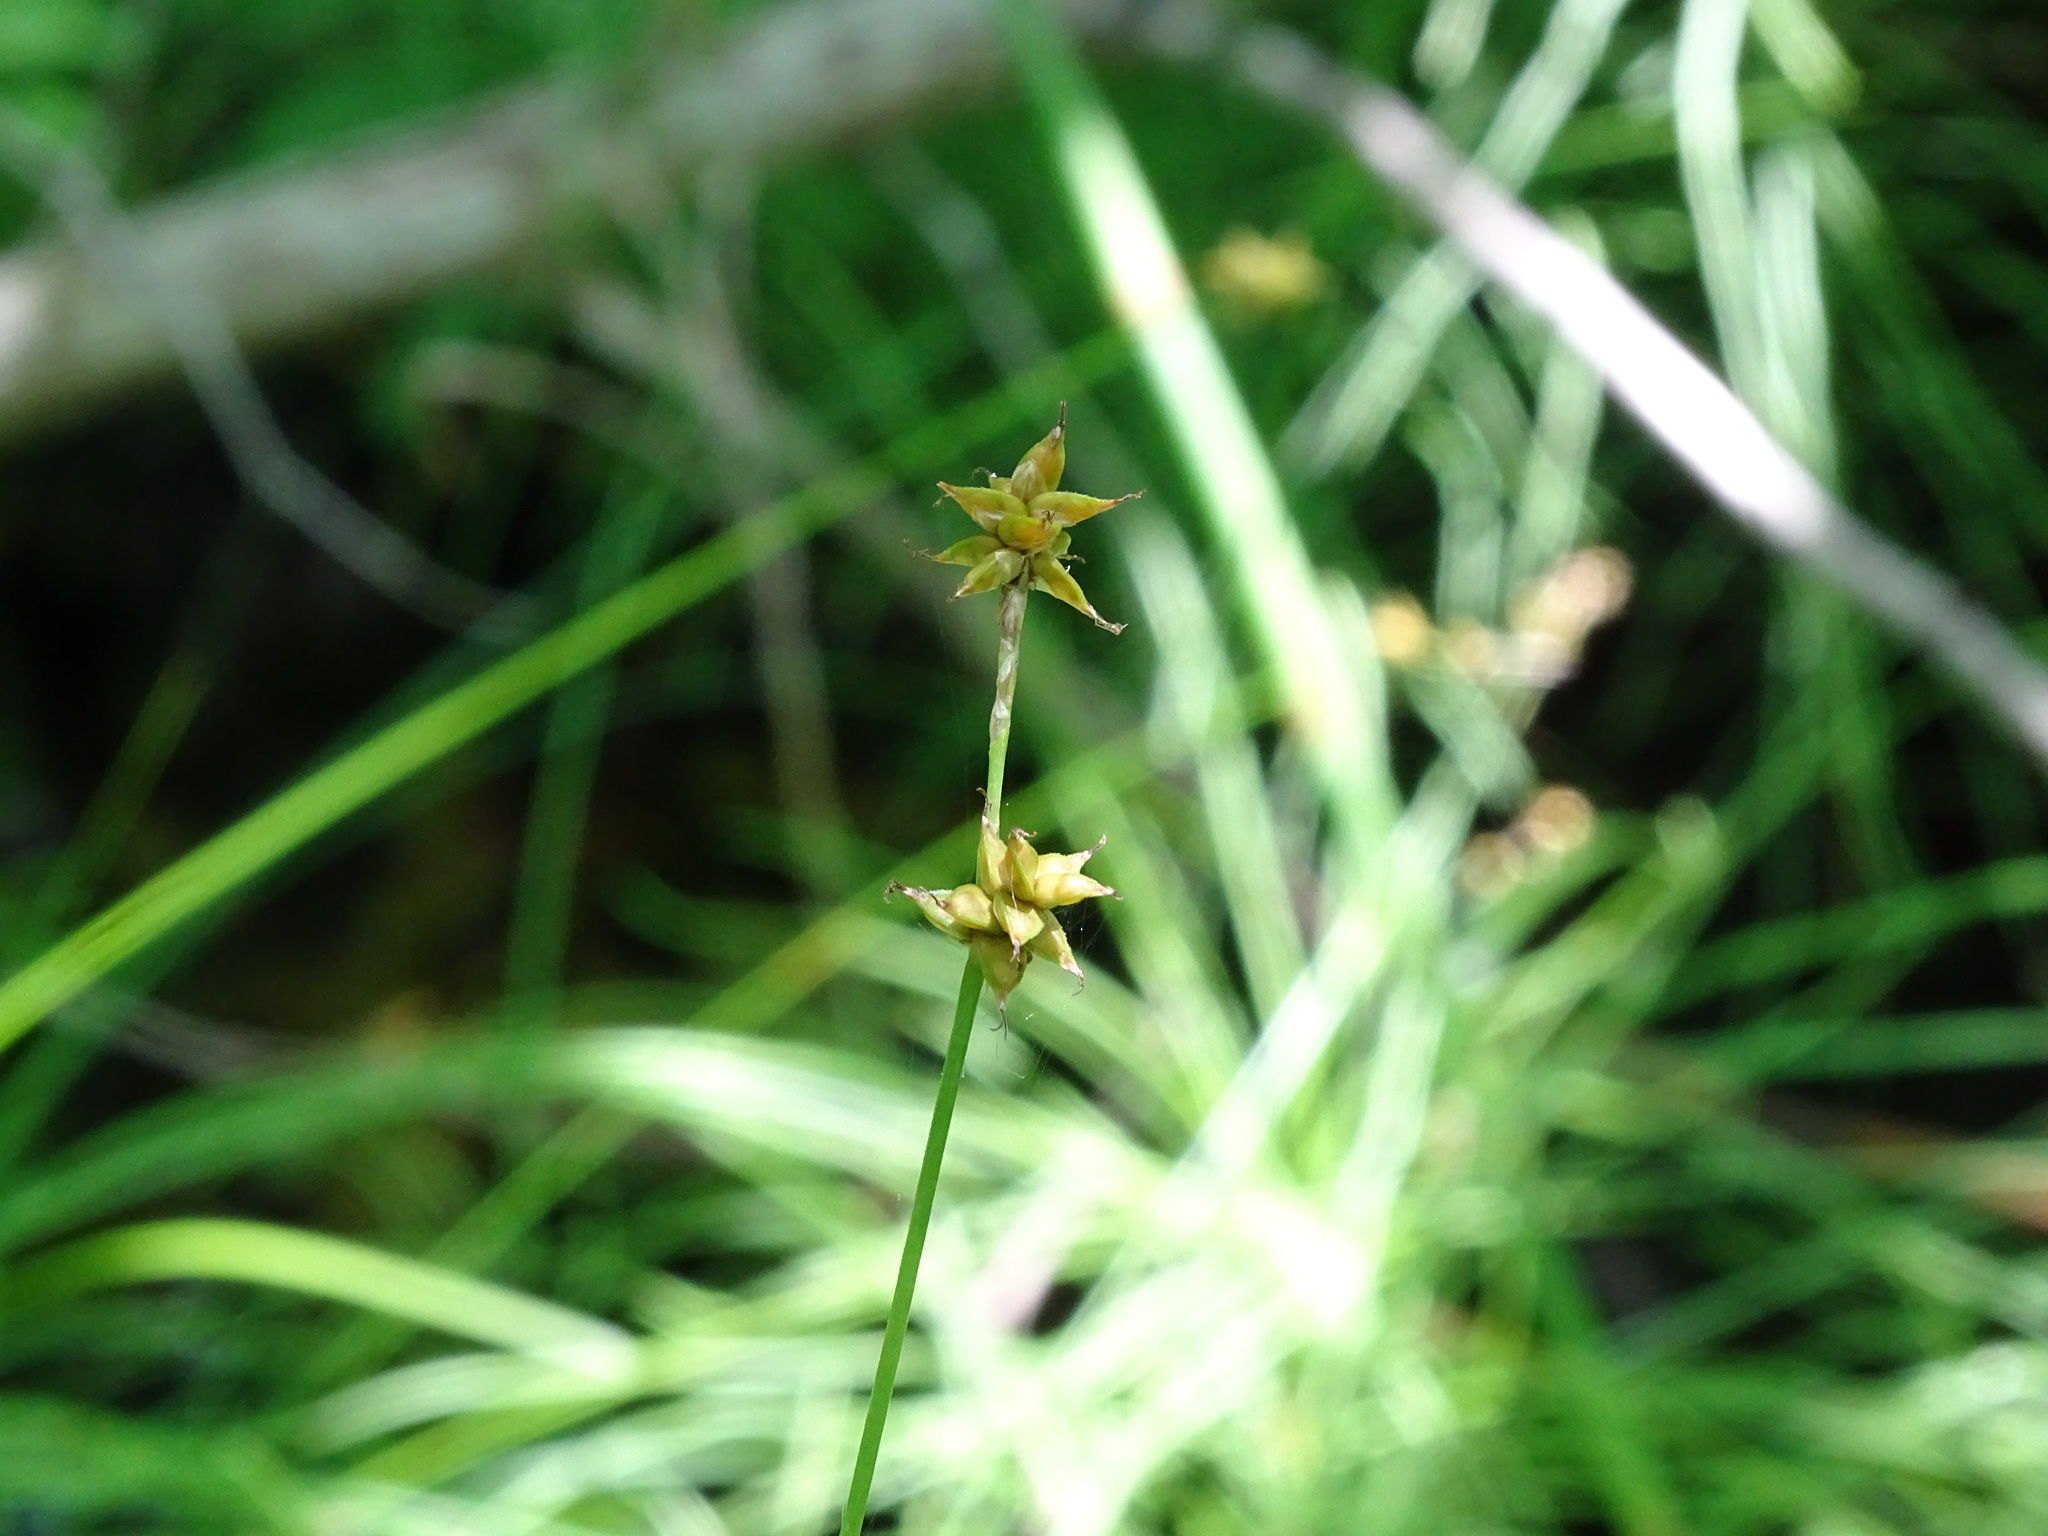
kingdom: Plantae
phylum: Tracheophyta
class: Liliopsida
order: Poales
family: Cyperaceae
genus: Carex
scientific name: Carex interior
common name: Inland sedge
